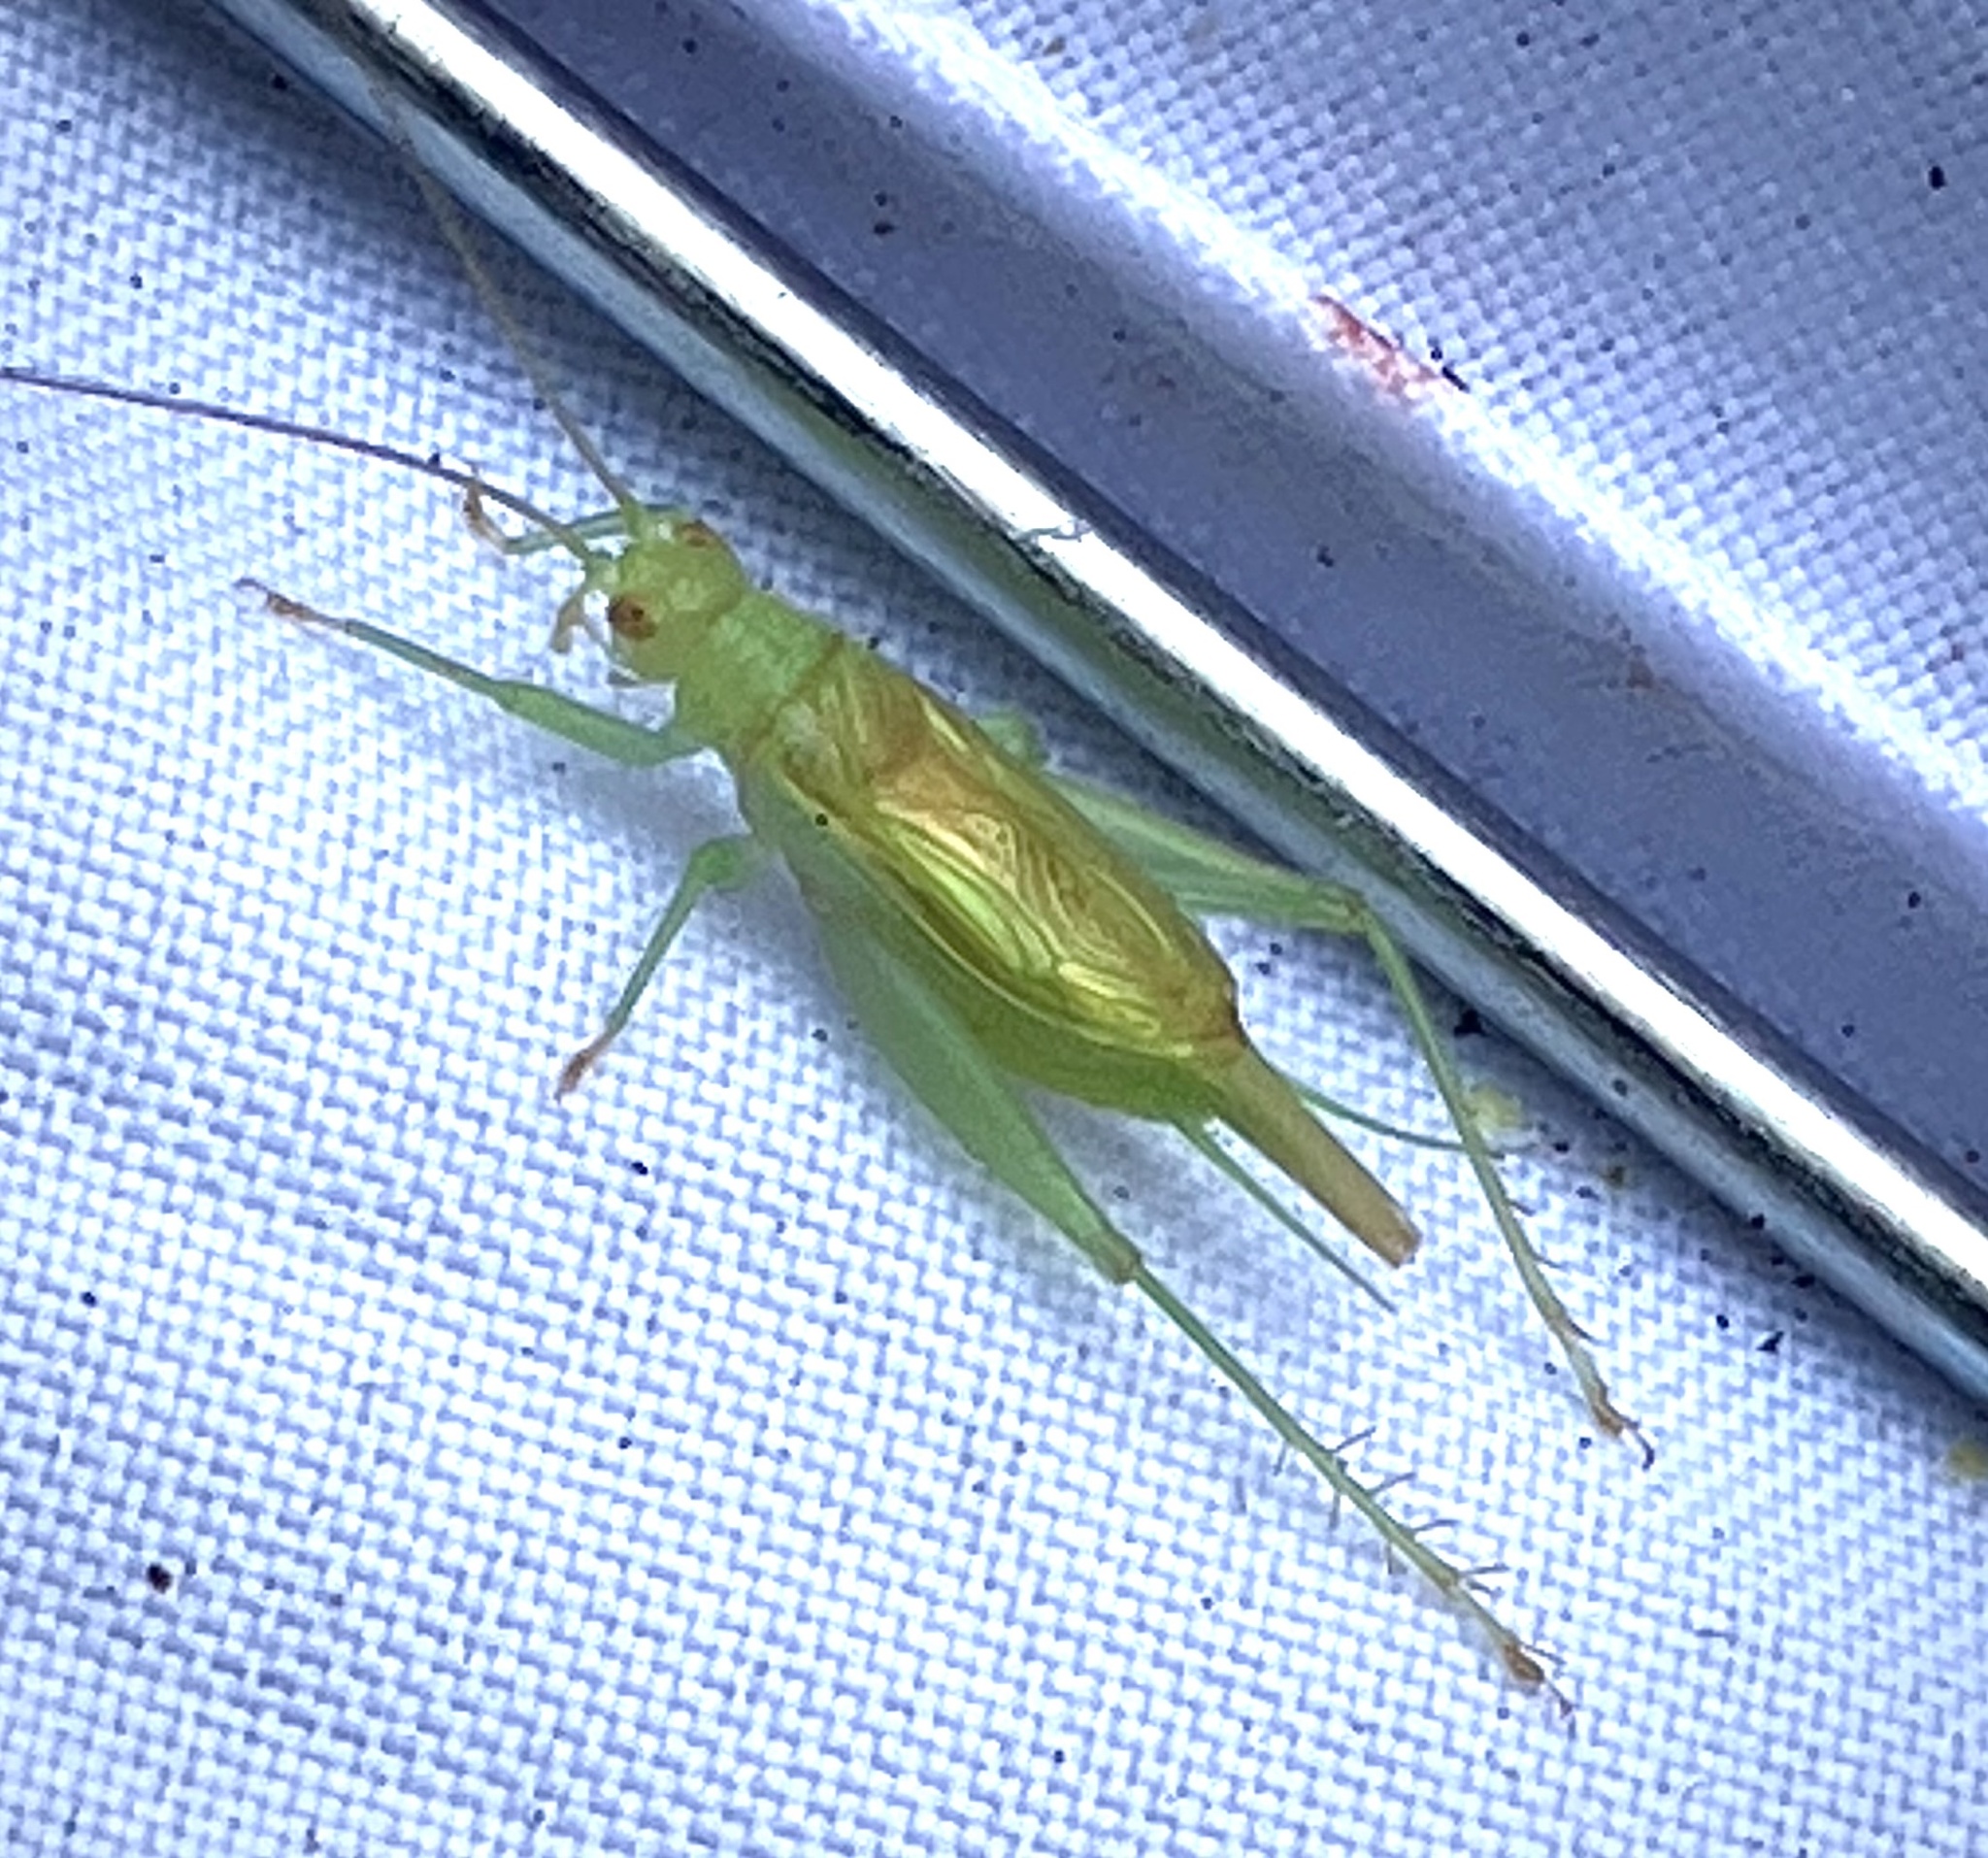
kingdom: Animalia
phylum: Arthropoda
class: Insecta
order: Orthoptera
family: Trigonidiidae
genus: Cyrtoxipha
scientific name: Cyrtoxipha columbiana
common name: Columbian trig
